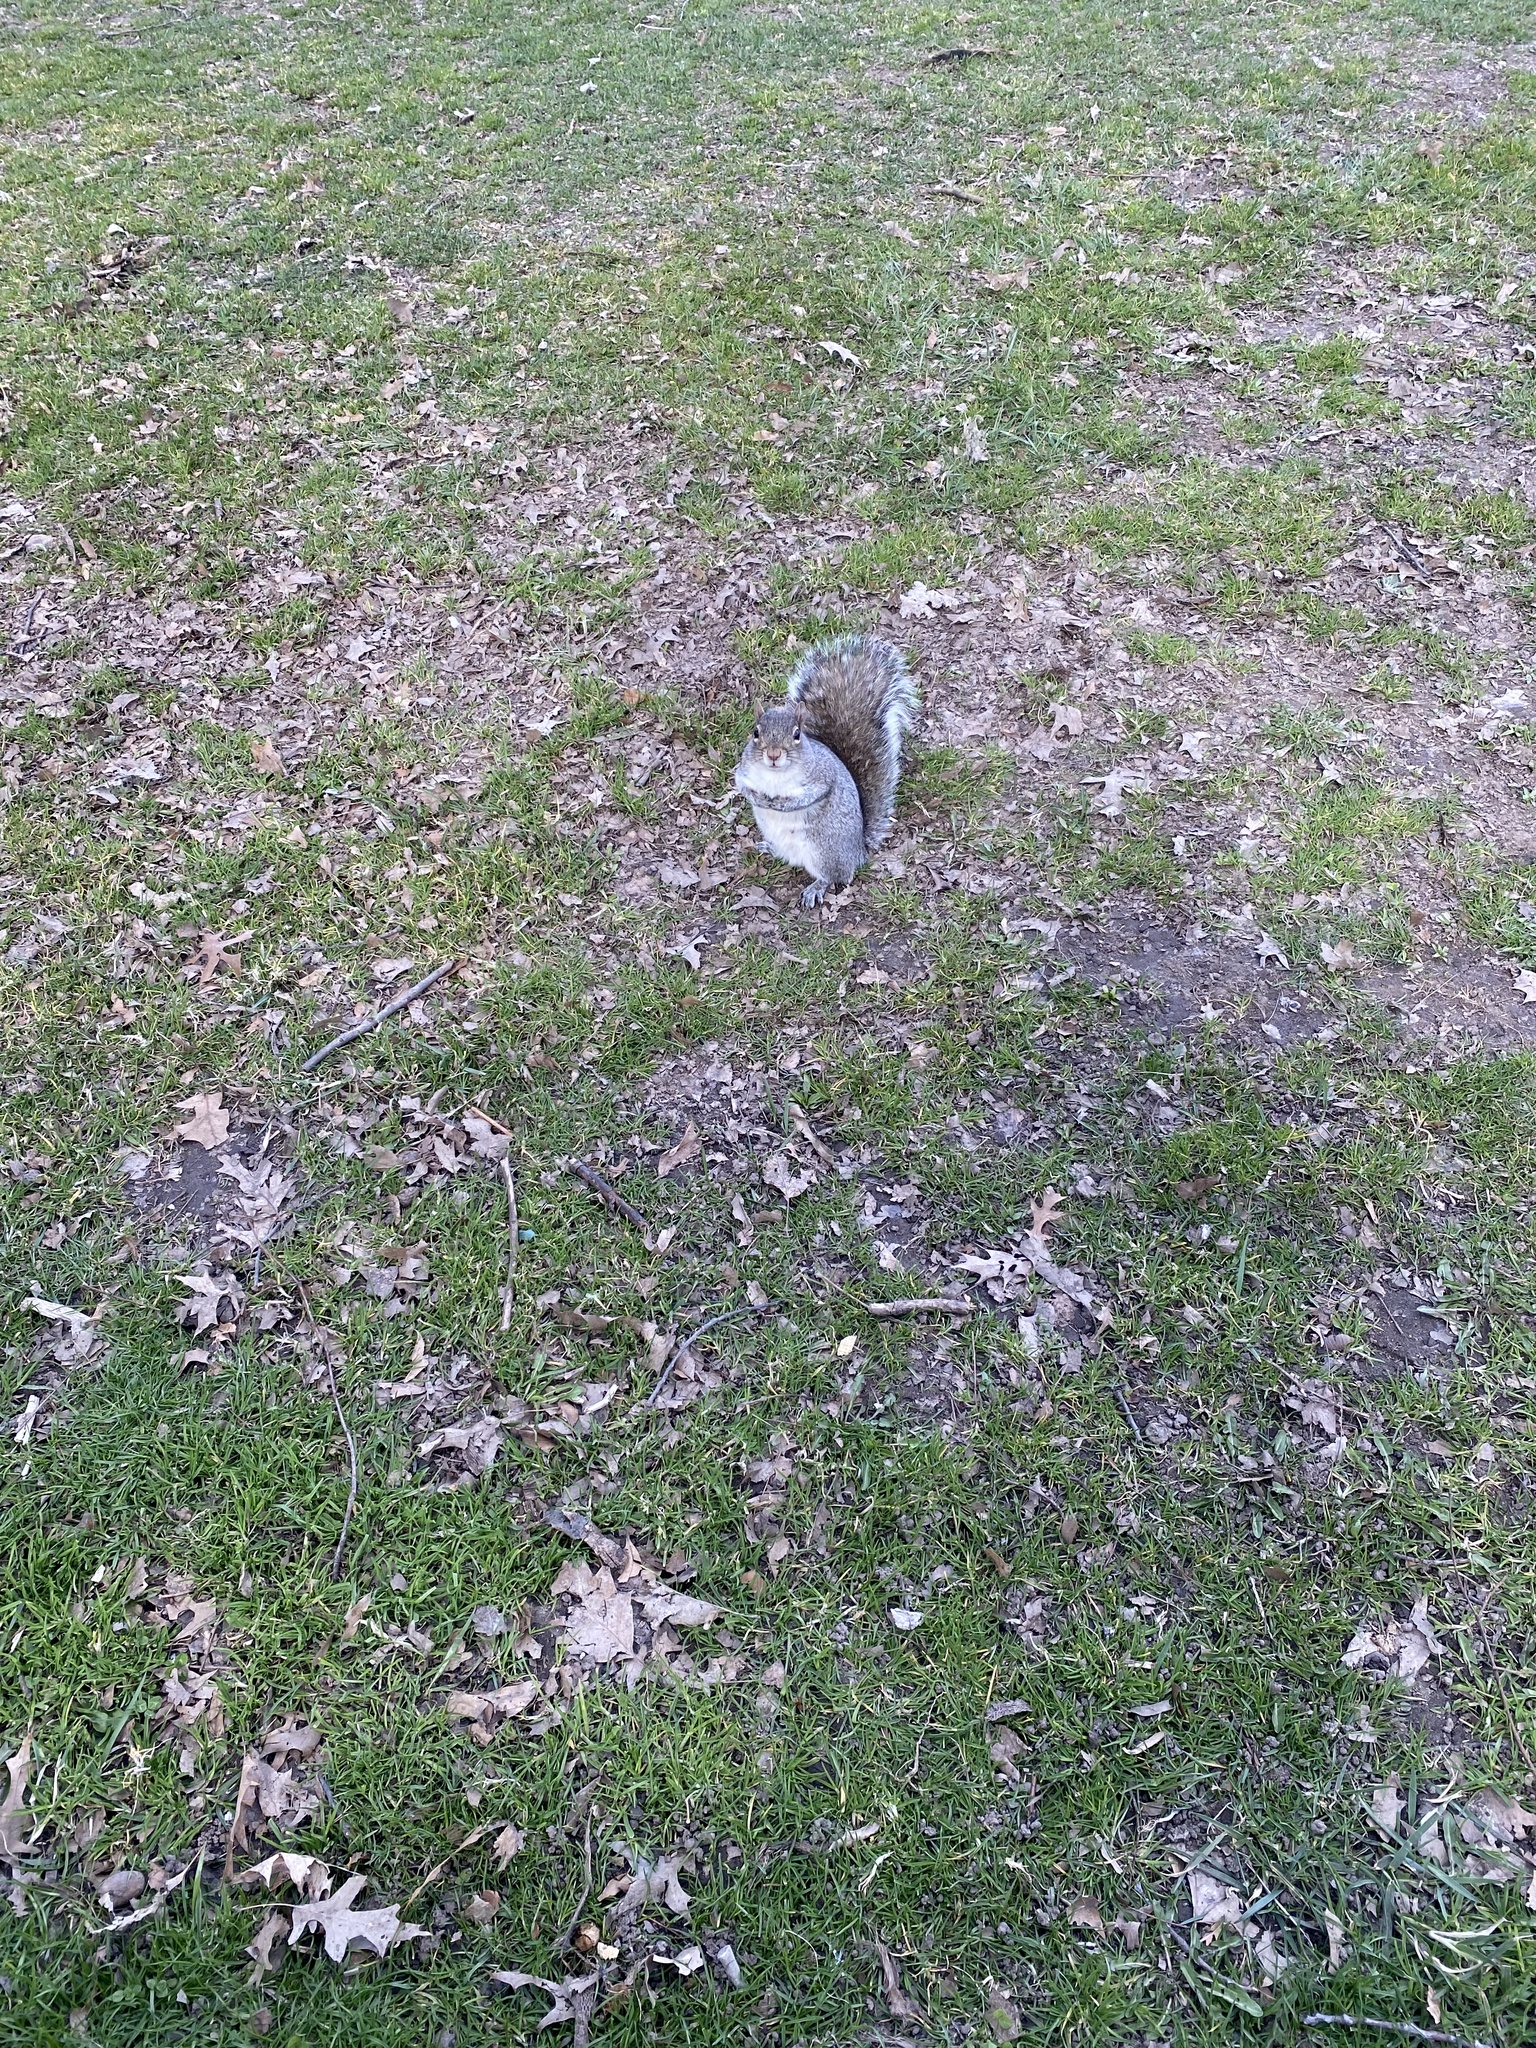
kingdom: Animalia
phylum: Chordata
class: Mammalia
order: Rodentia
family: Sciuridae
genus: Sciurus
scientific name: Sciurus carolinensis
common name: Eastern gray squirrel
